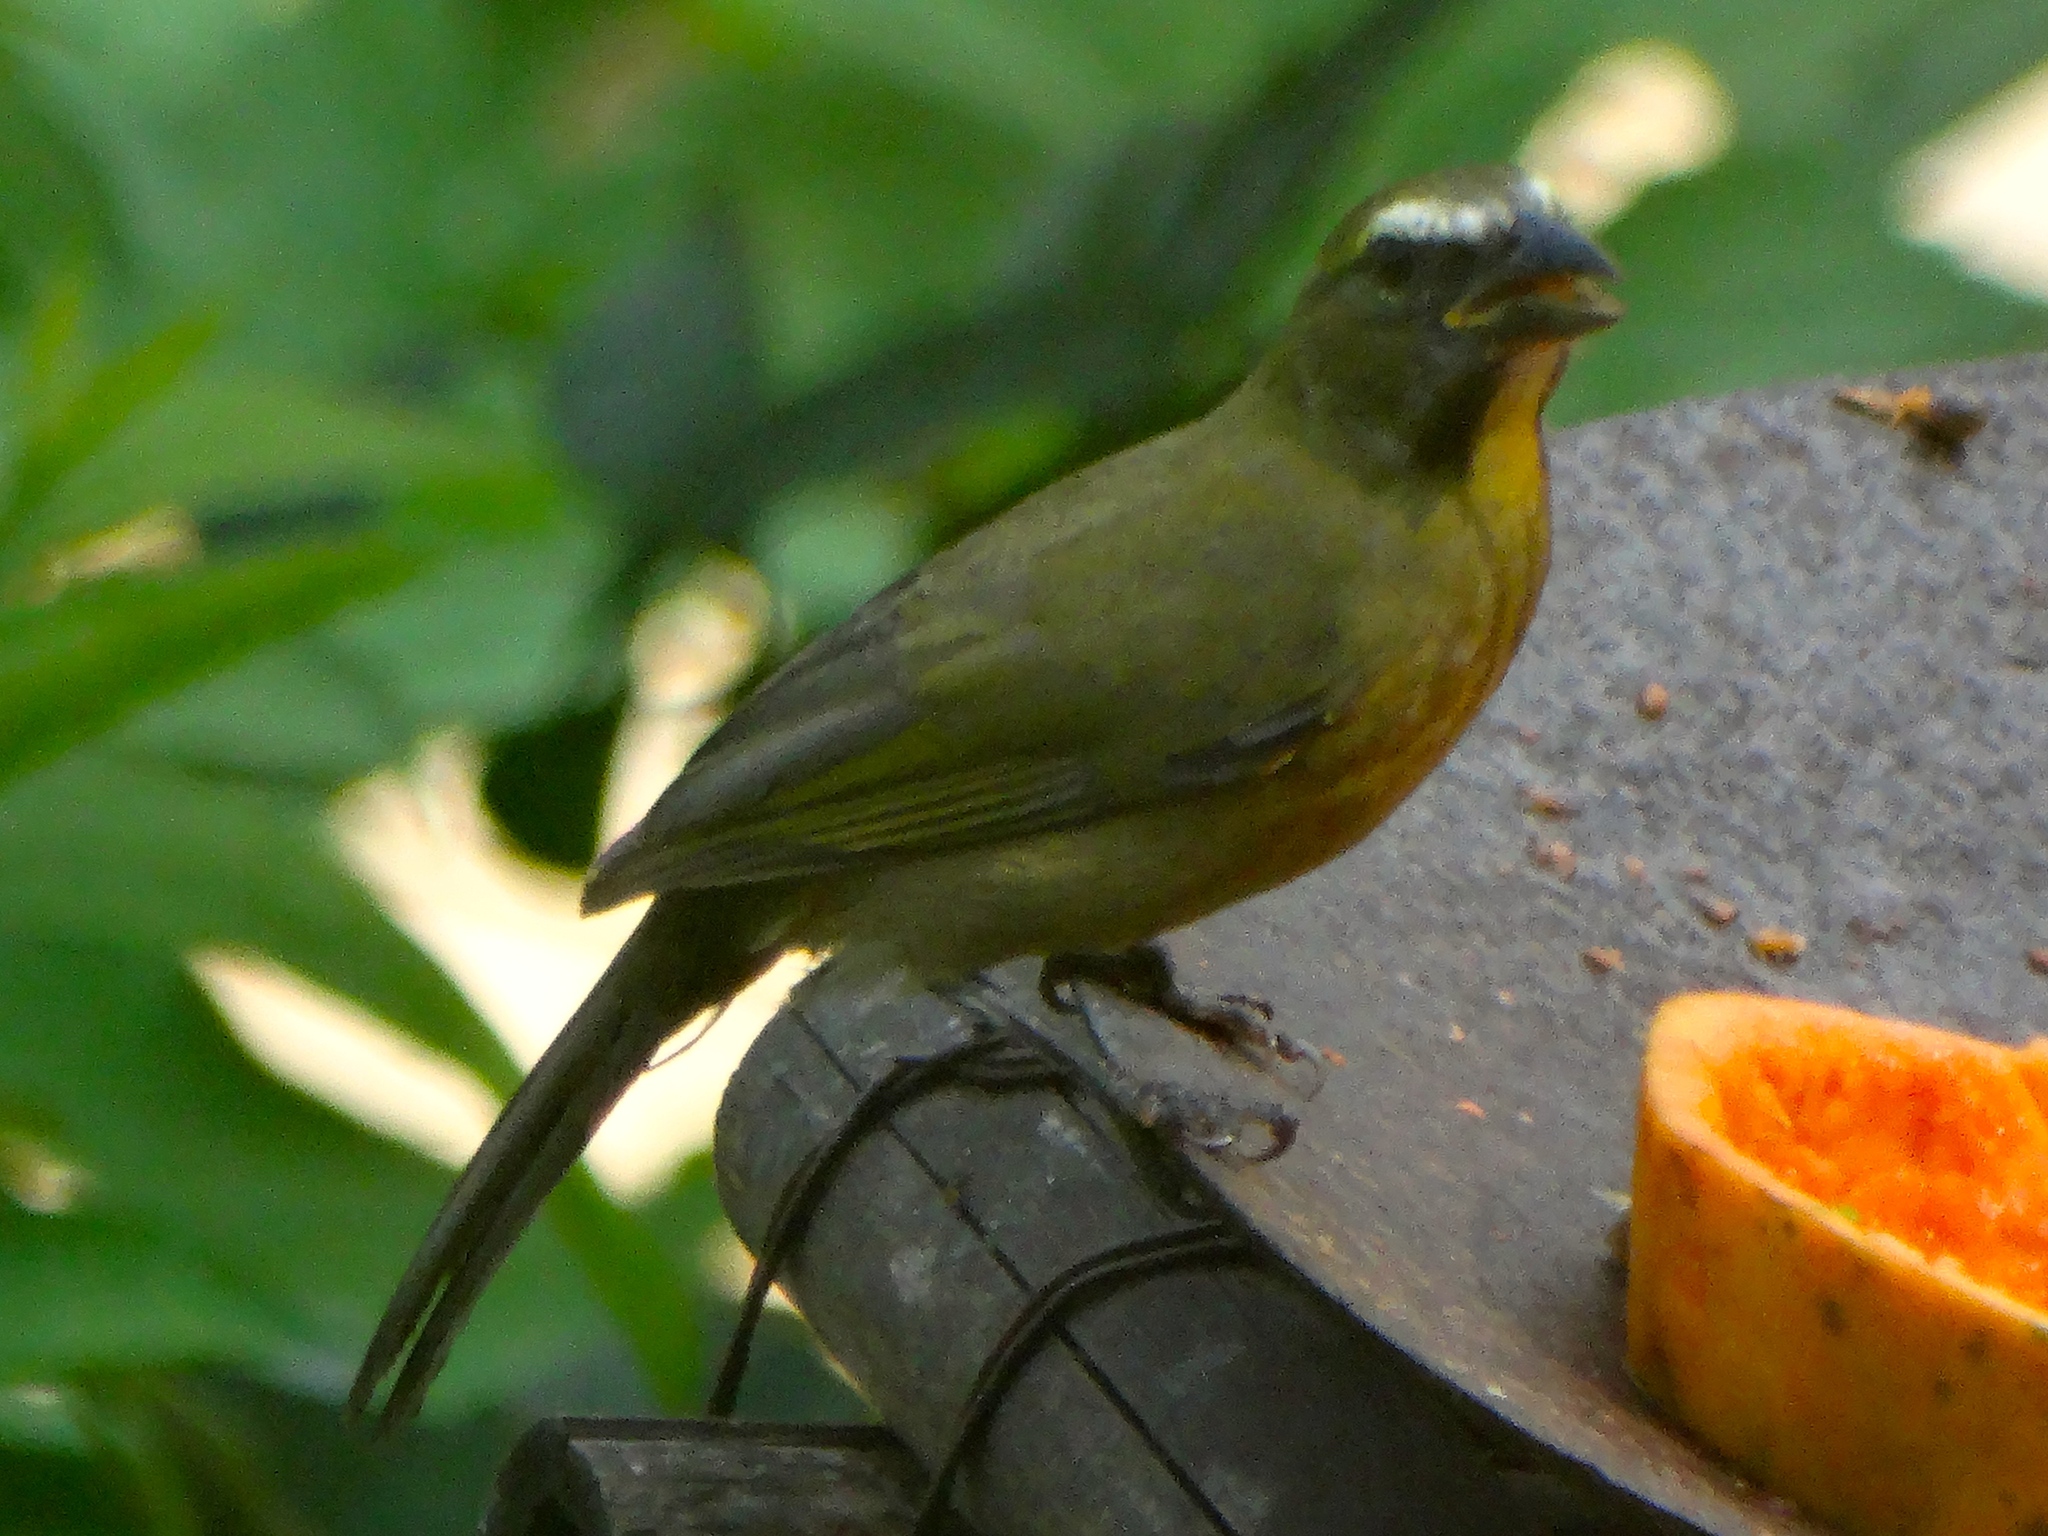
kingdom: Animalia
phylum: Chordata
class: Aves
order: Passeriformes
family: Thraupidae
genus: Saltator
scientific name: Saltator grandis
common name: Cinnamon-bellied saltator
